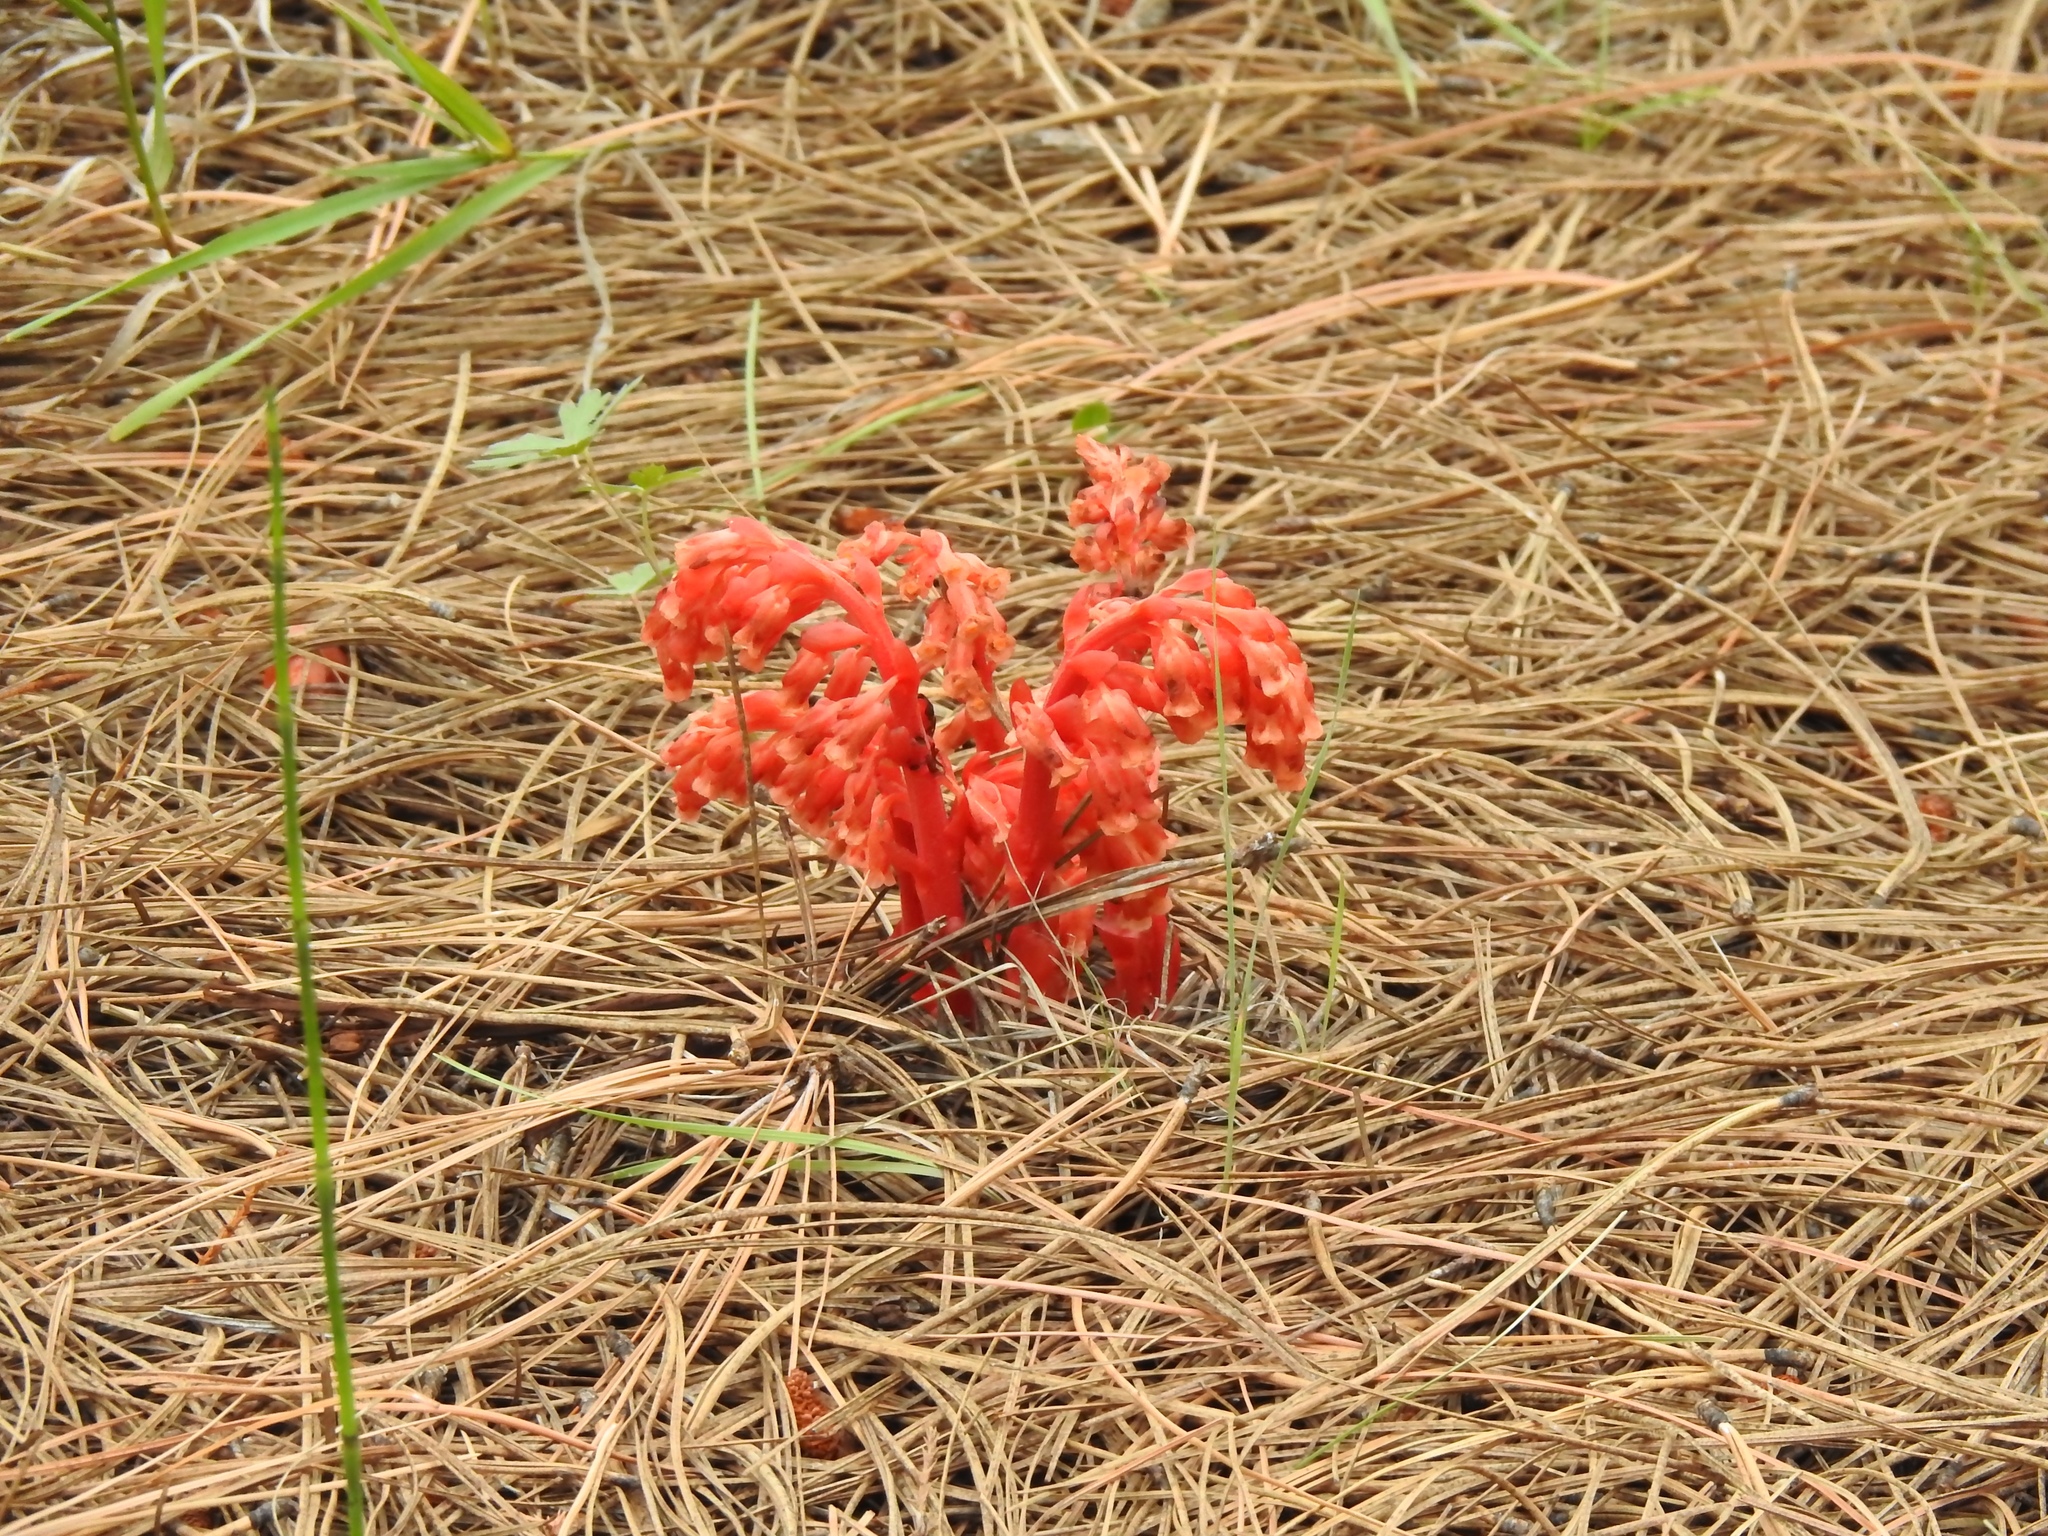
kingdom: Plantae
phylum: Tracheophyta
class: Magnoliopsida
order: Ericales
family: Ericaceae
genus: Hypopitys
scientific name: Hypopitys monotropa
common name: Yellow bird's-nest
